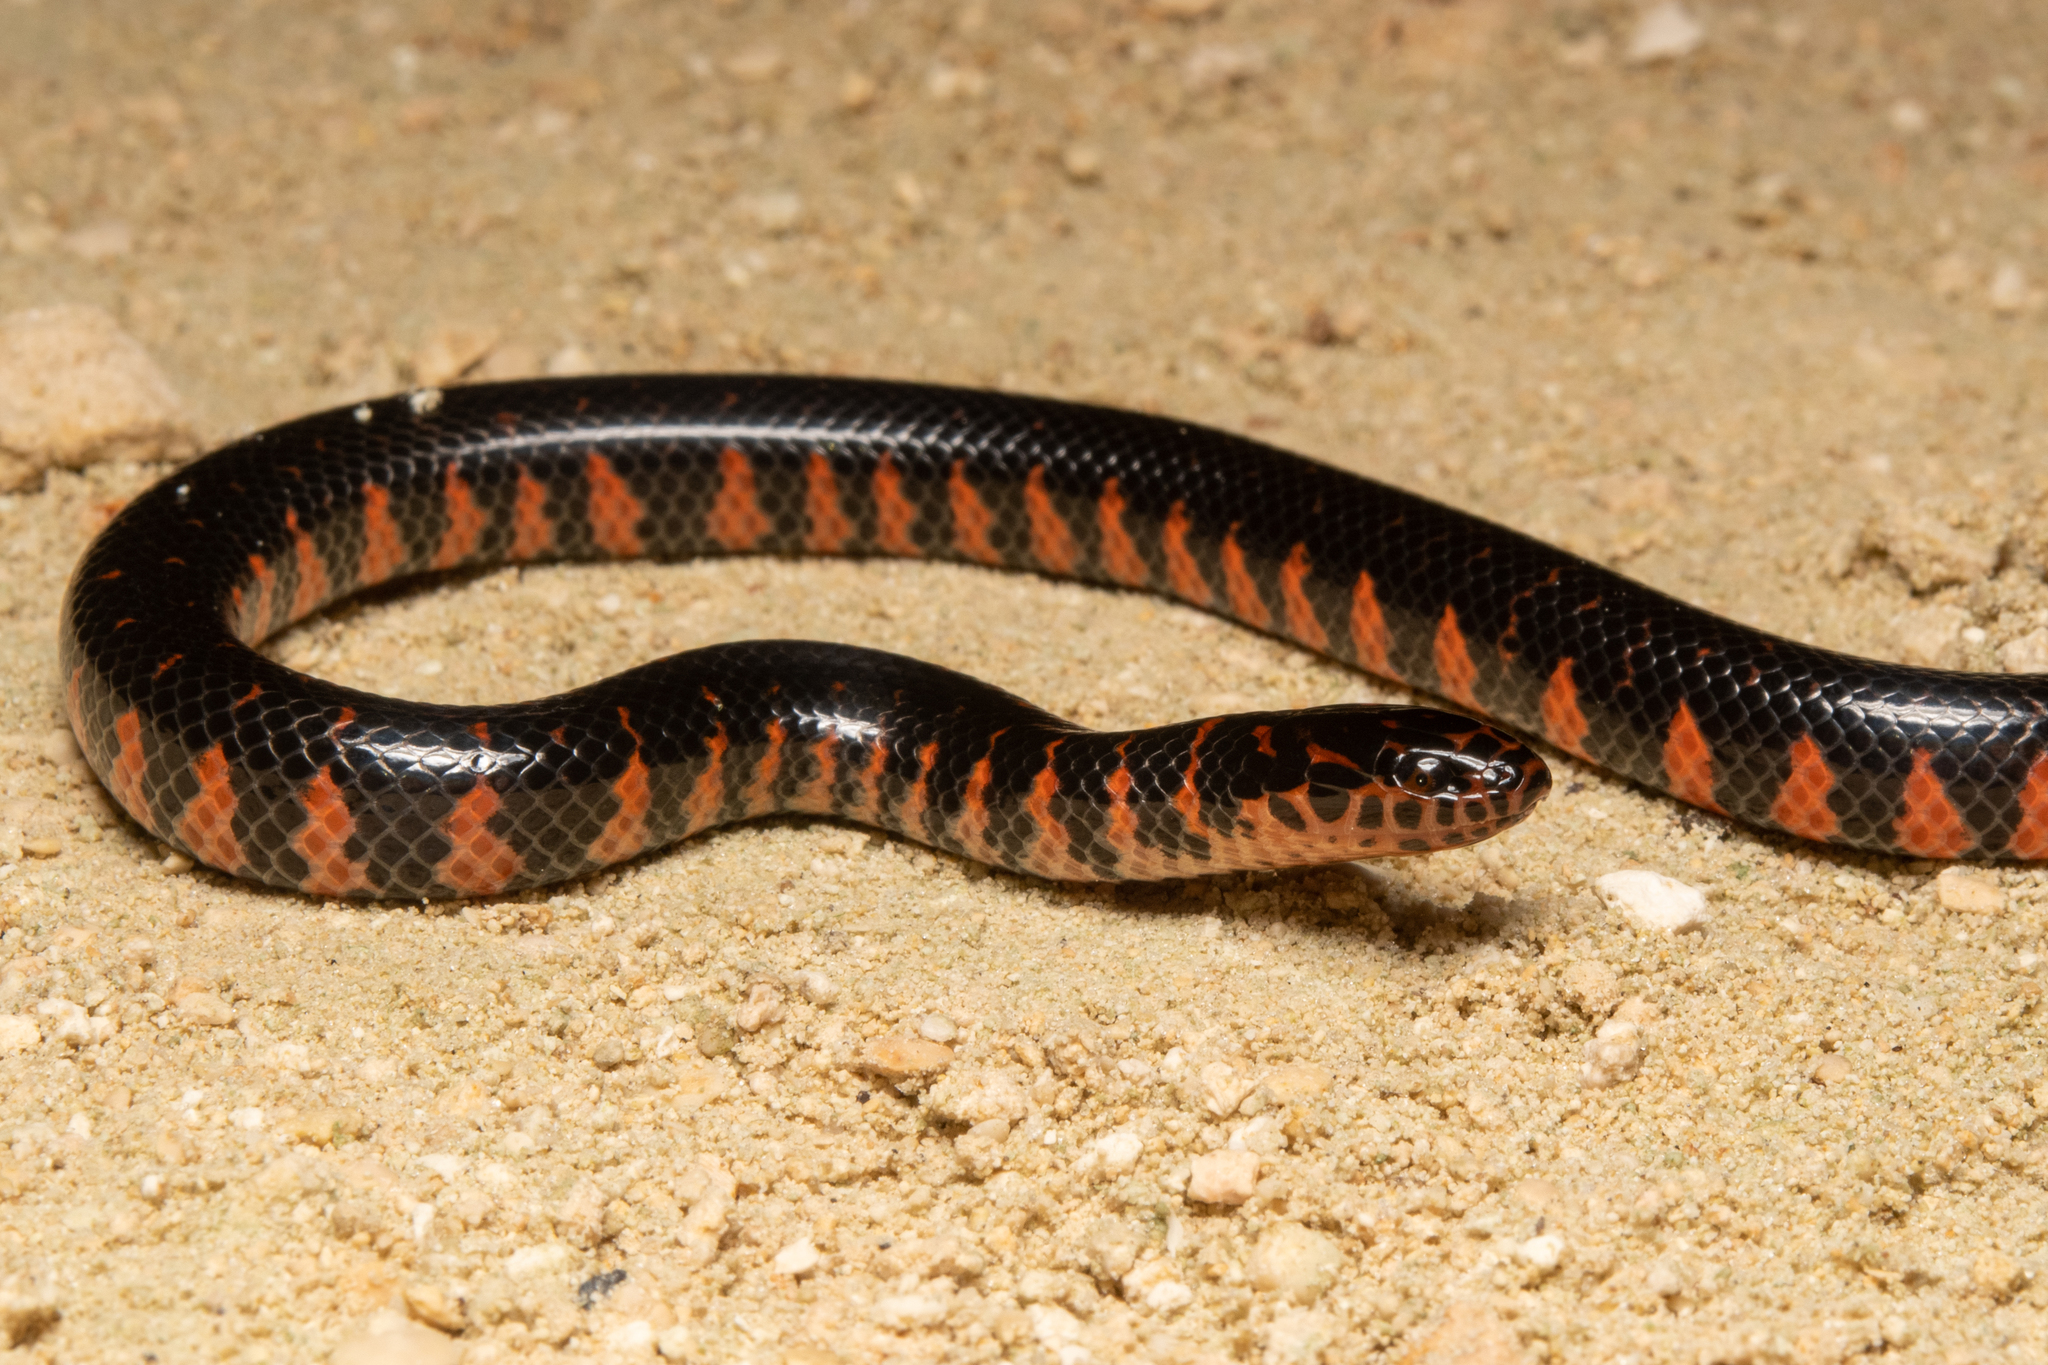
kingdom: Animalia
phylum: Chordata
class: Squamata
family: Colubridae
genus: Farancia
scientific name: Farancia abacura
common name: Mud snake
